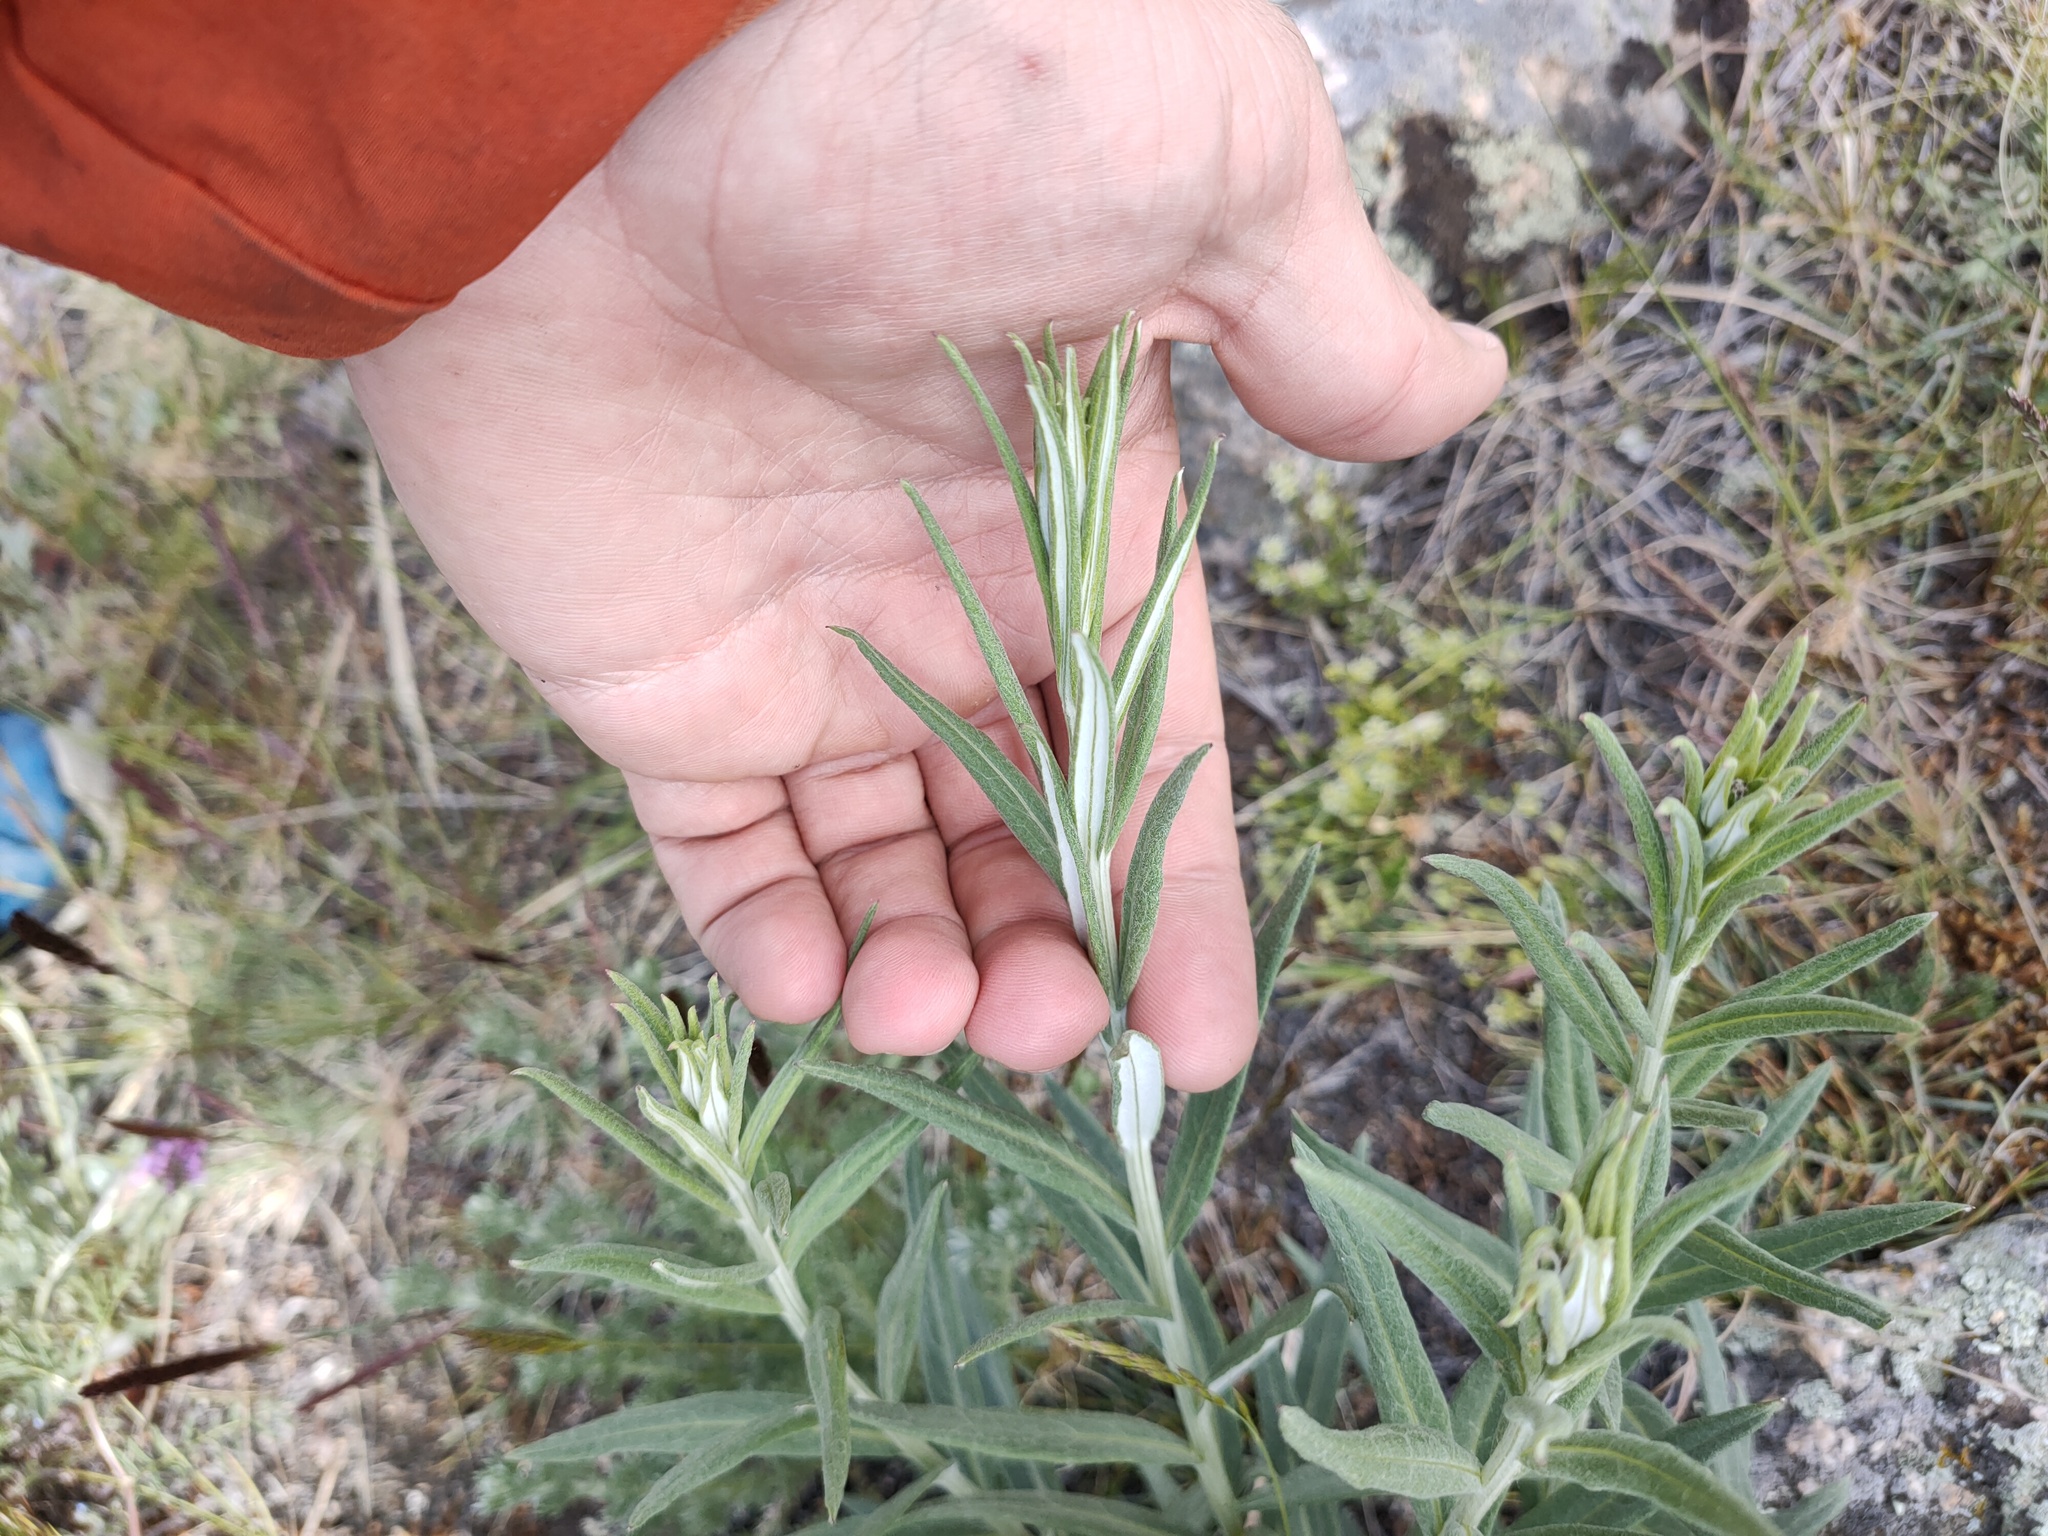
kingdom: Plantae
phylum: Tracheophyta
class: Magnoliopsida
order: Asterales
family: Asteraceae
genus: Saussurea
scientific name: Saussurea salicifolia
